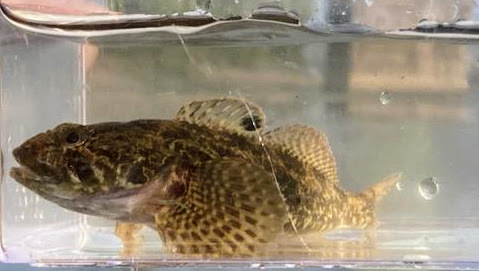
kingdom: Animalia
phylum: Chordata
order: Scorpaeniformes
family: Cottidae
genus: Cottus
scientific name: Cottus asper
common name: Prickly sculpin
